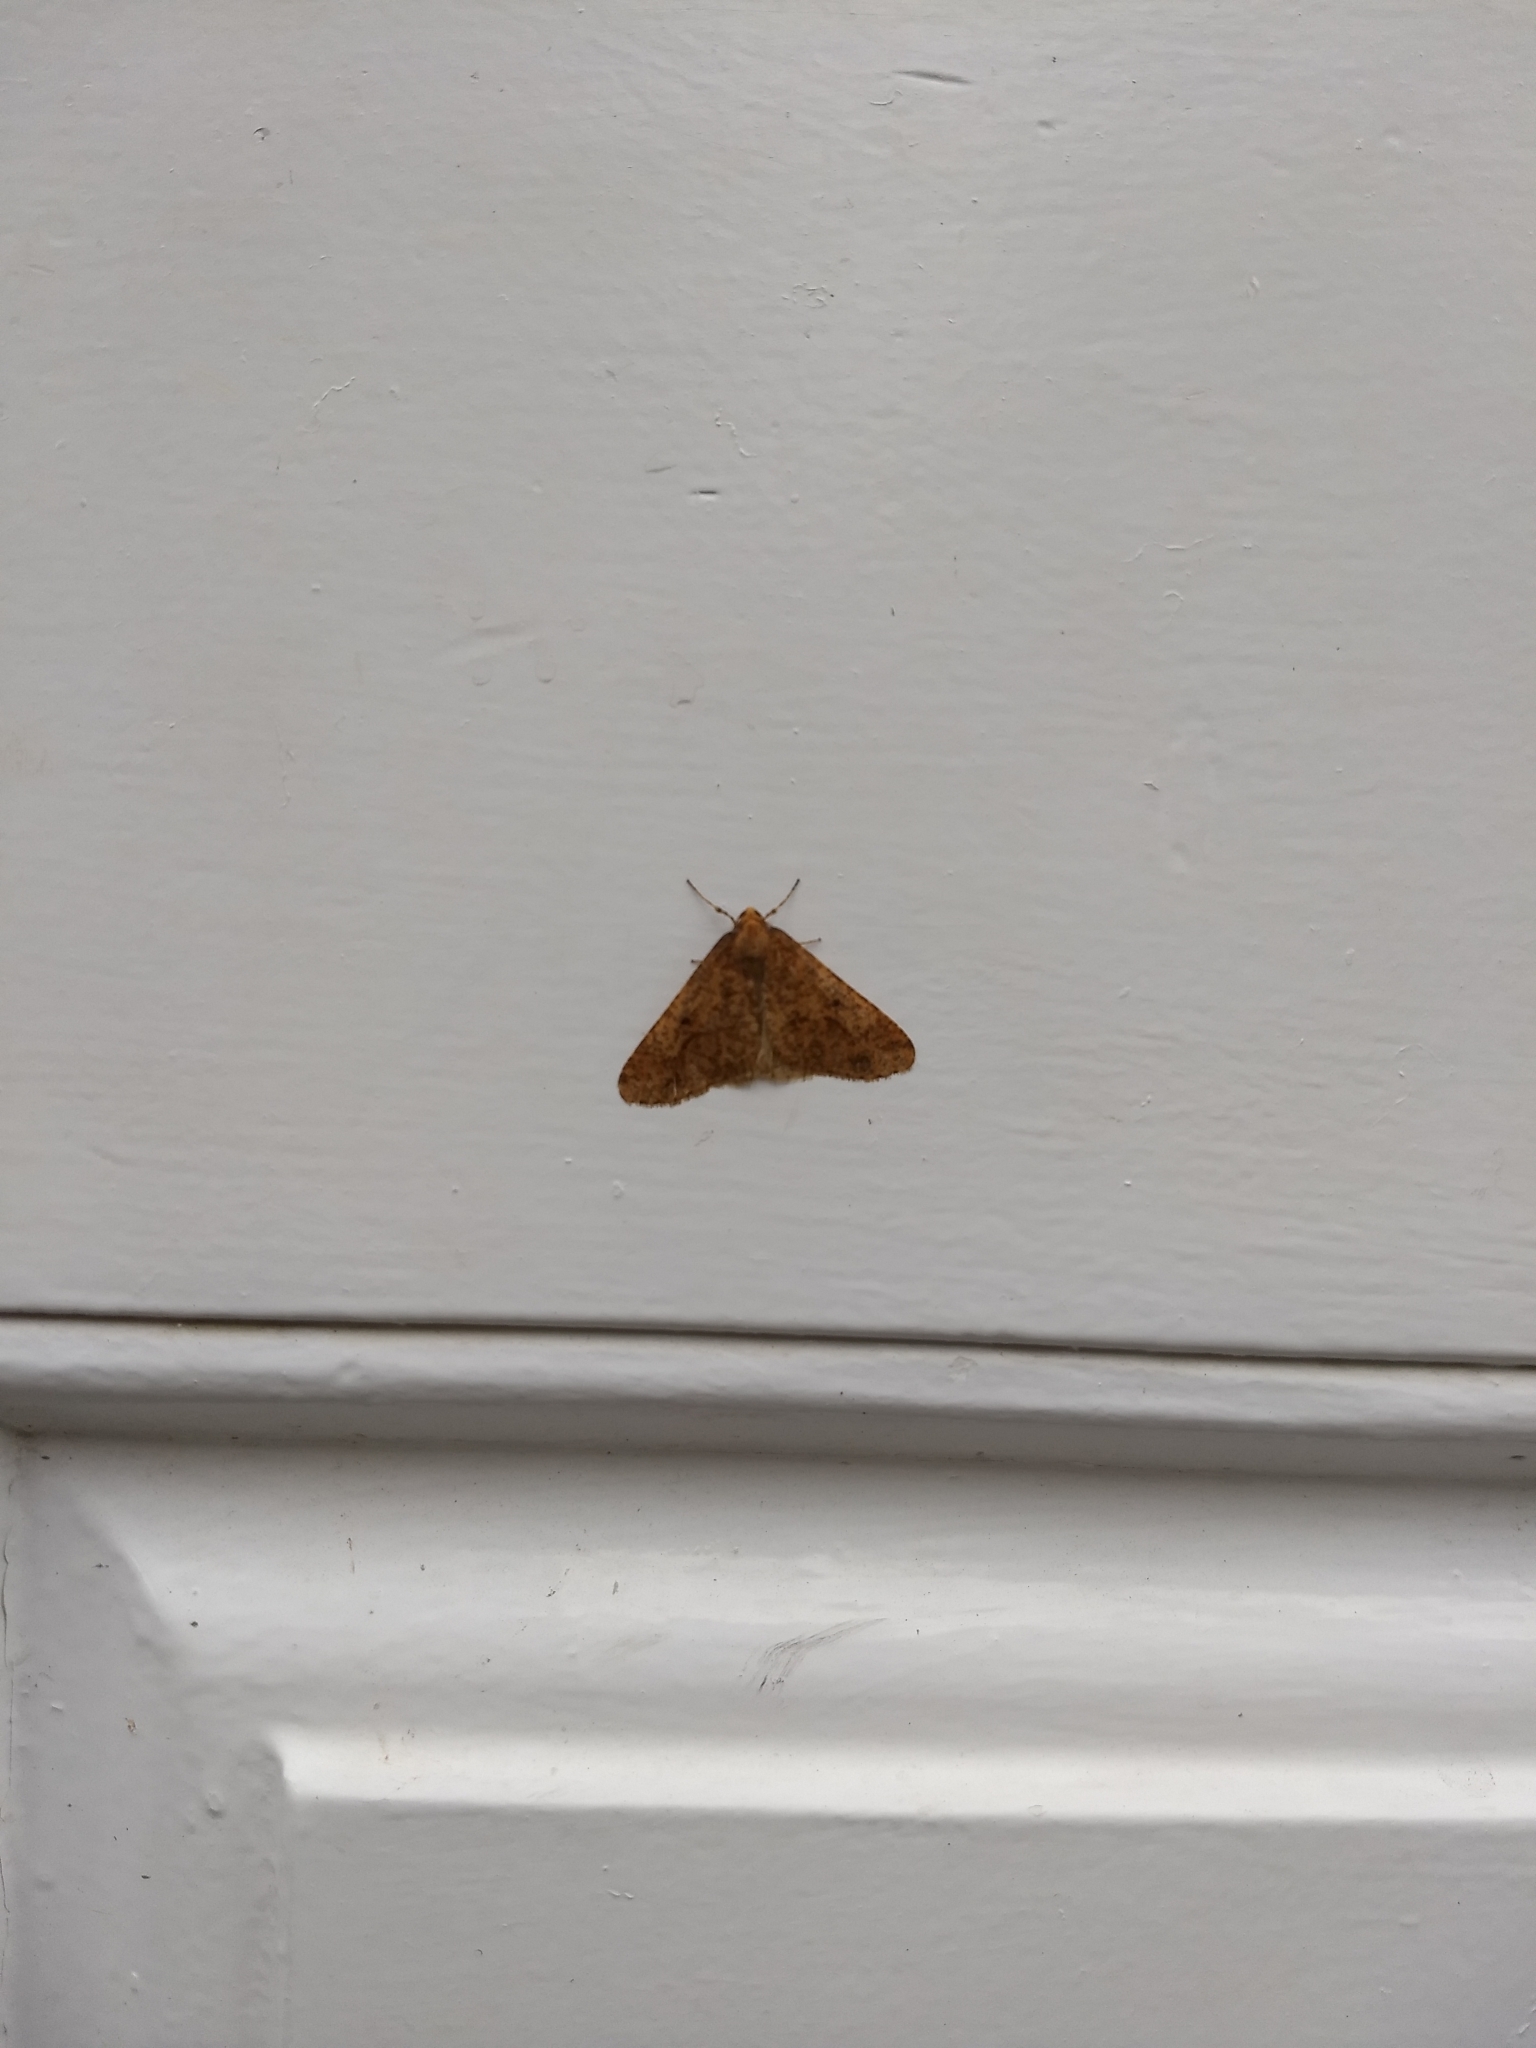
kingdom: Animalia
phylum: Arthropoda
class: Insecta
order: Lepidoptera
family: Geometridae
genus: Erannis
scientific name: Erannis defoliaria
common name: Mottled umber
